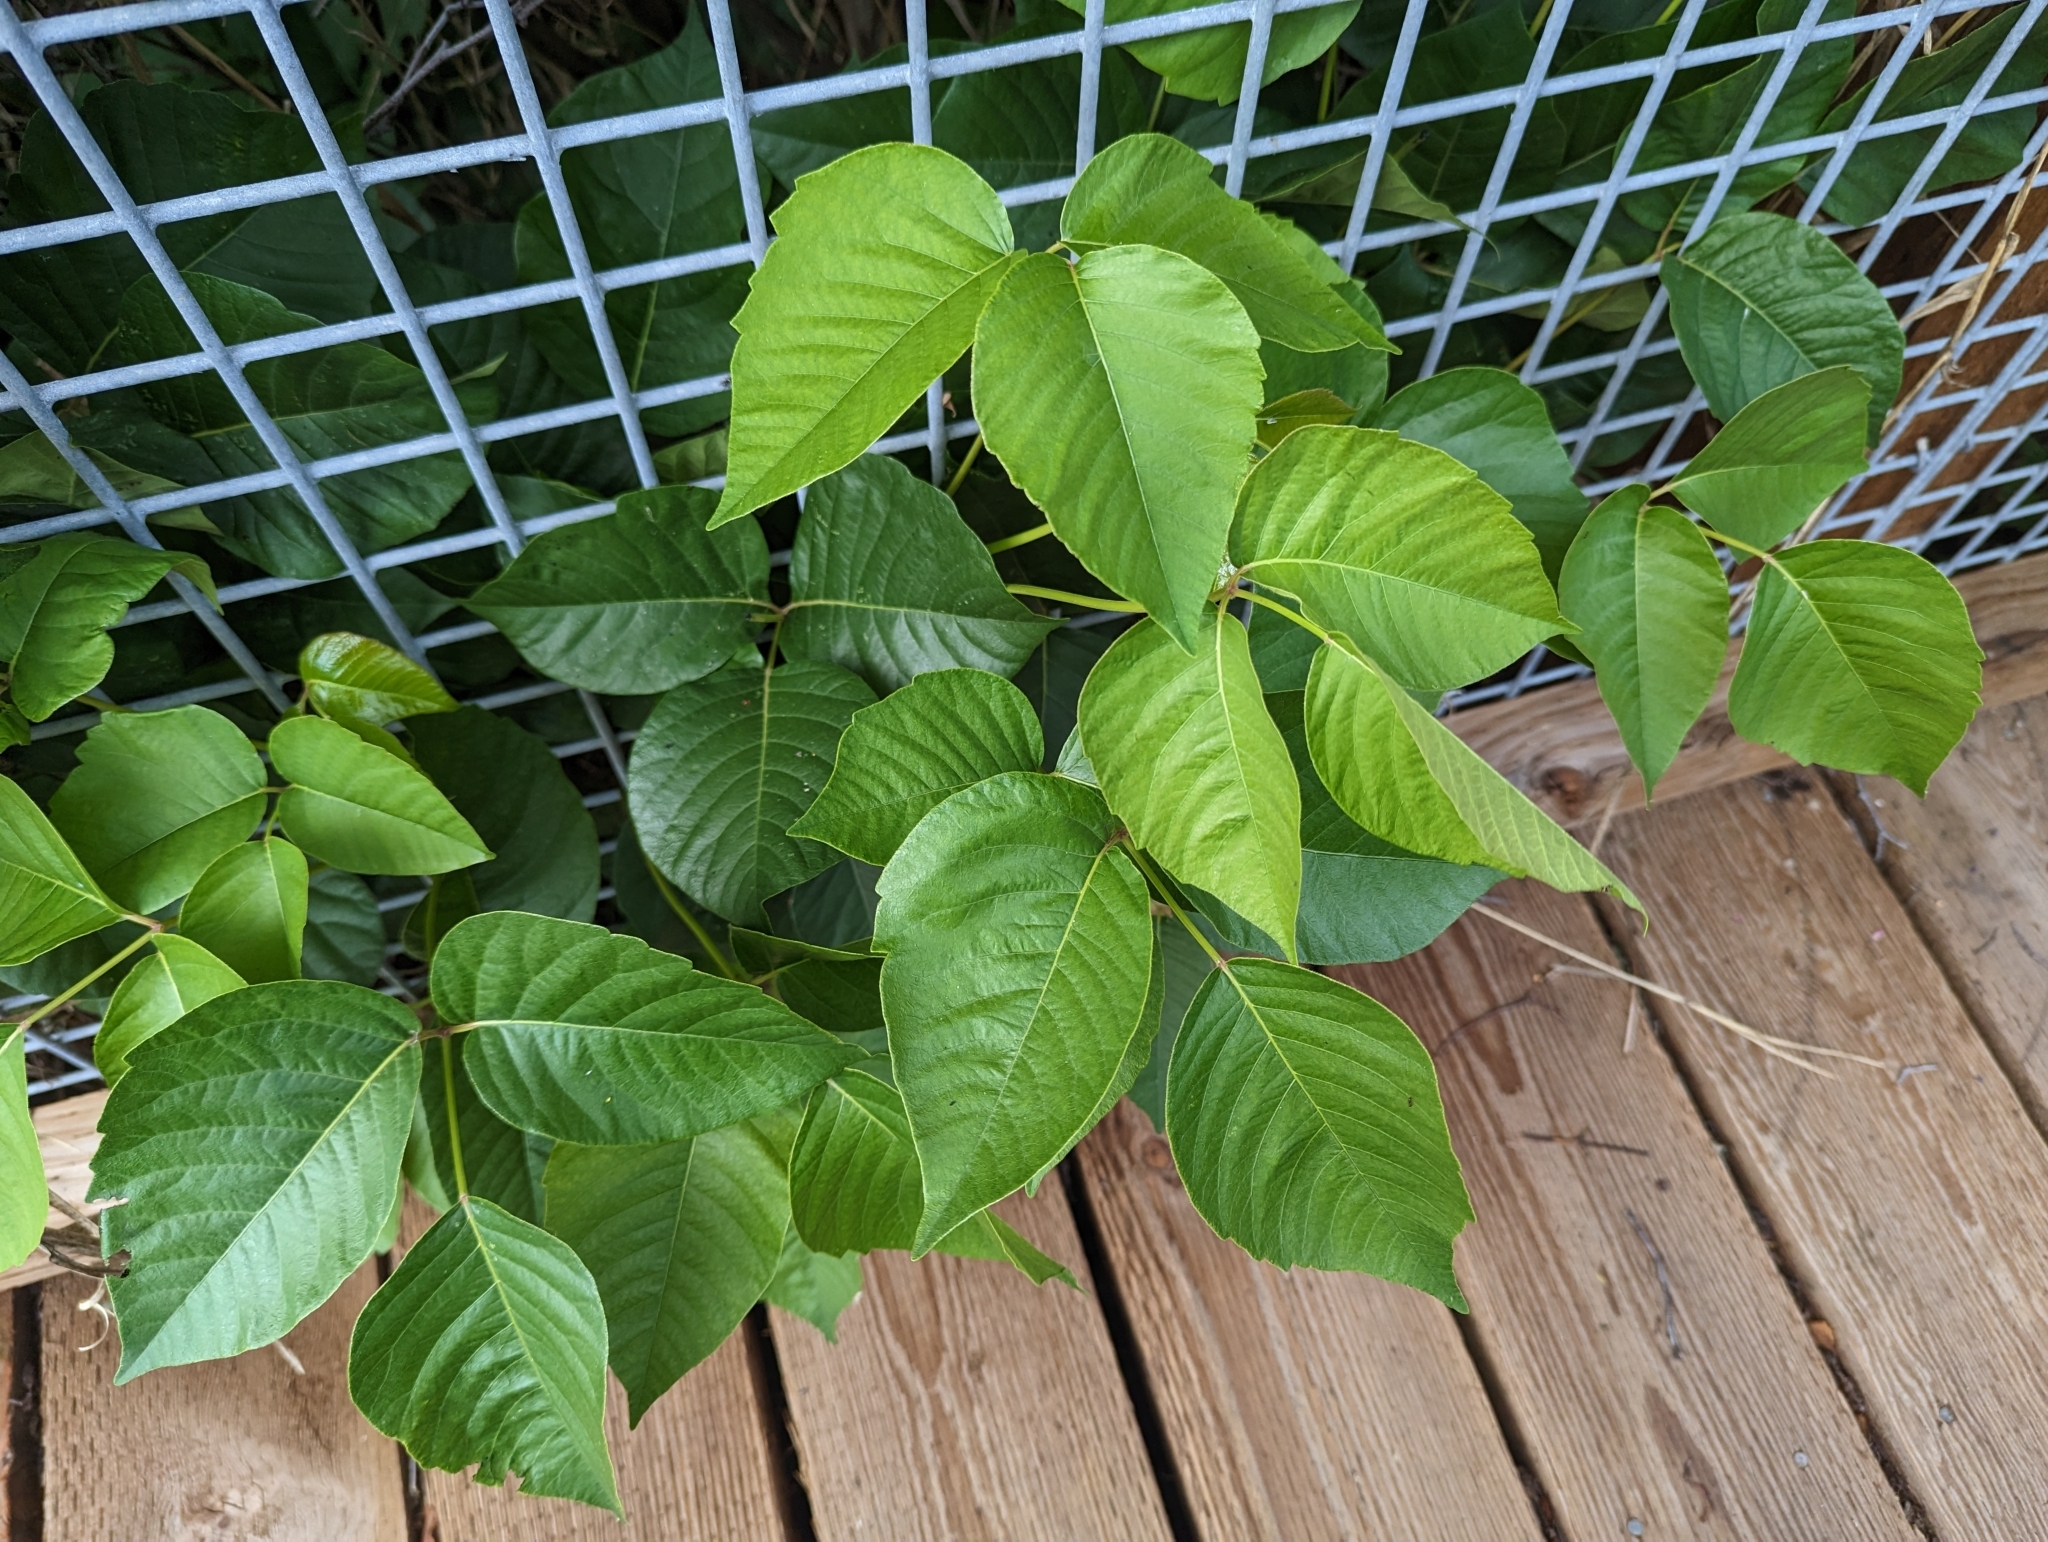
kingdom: Plantae
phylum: Tracheophyta
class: Magnoliopsida
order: Sapindales
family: Anacardiaceae
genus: Toxicodendron
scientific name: Toxicodendron rydbergii
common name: Rydberg's poison-ivy
